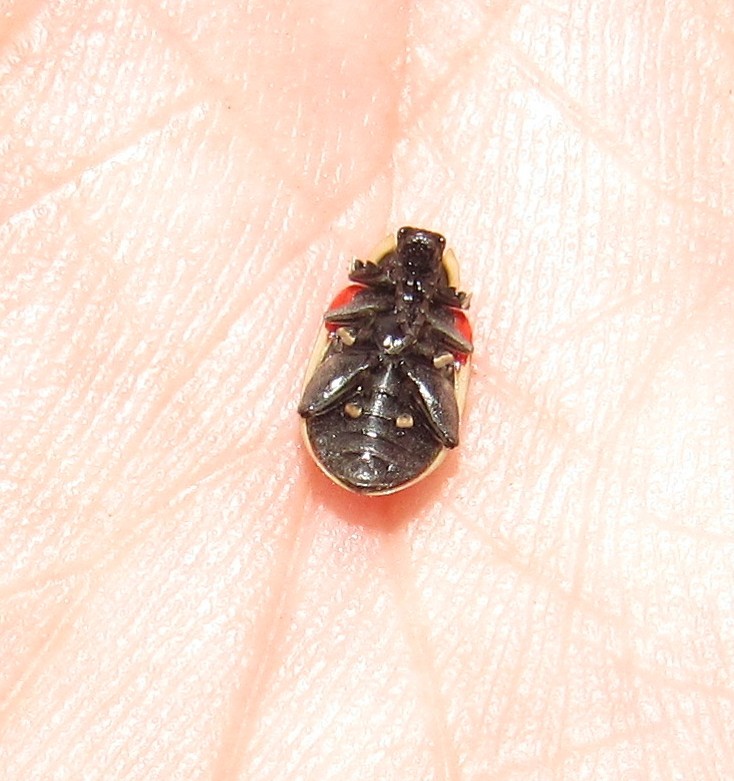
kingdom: Animalia
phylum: Arthropoda
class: Insecta
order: Coleoptera
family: Chrysomelidae
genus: Asphaera
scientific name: Asphaera
